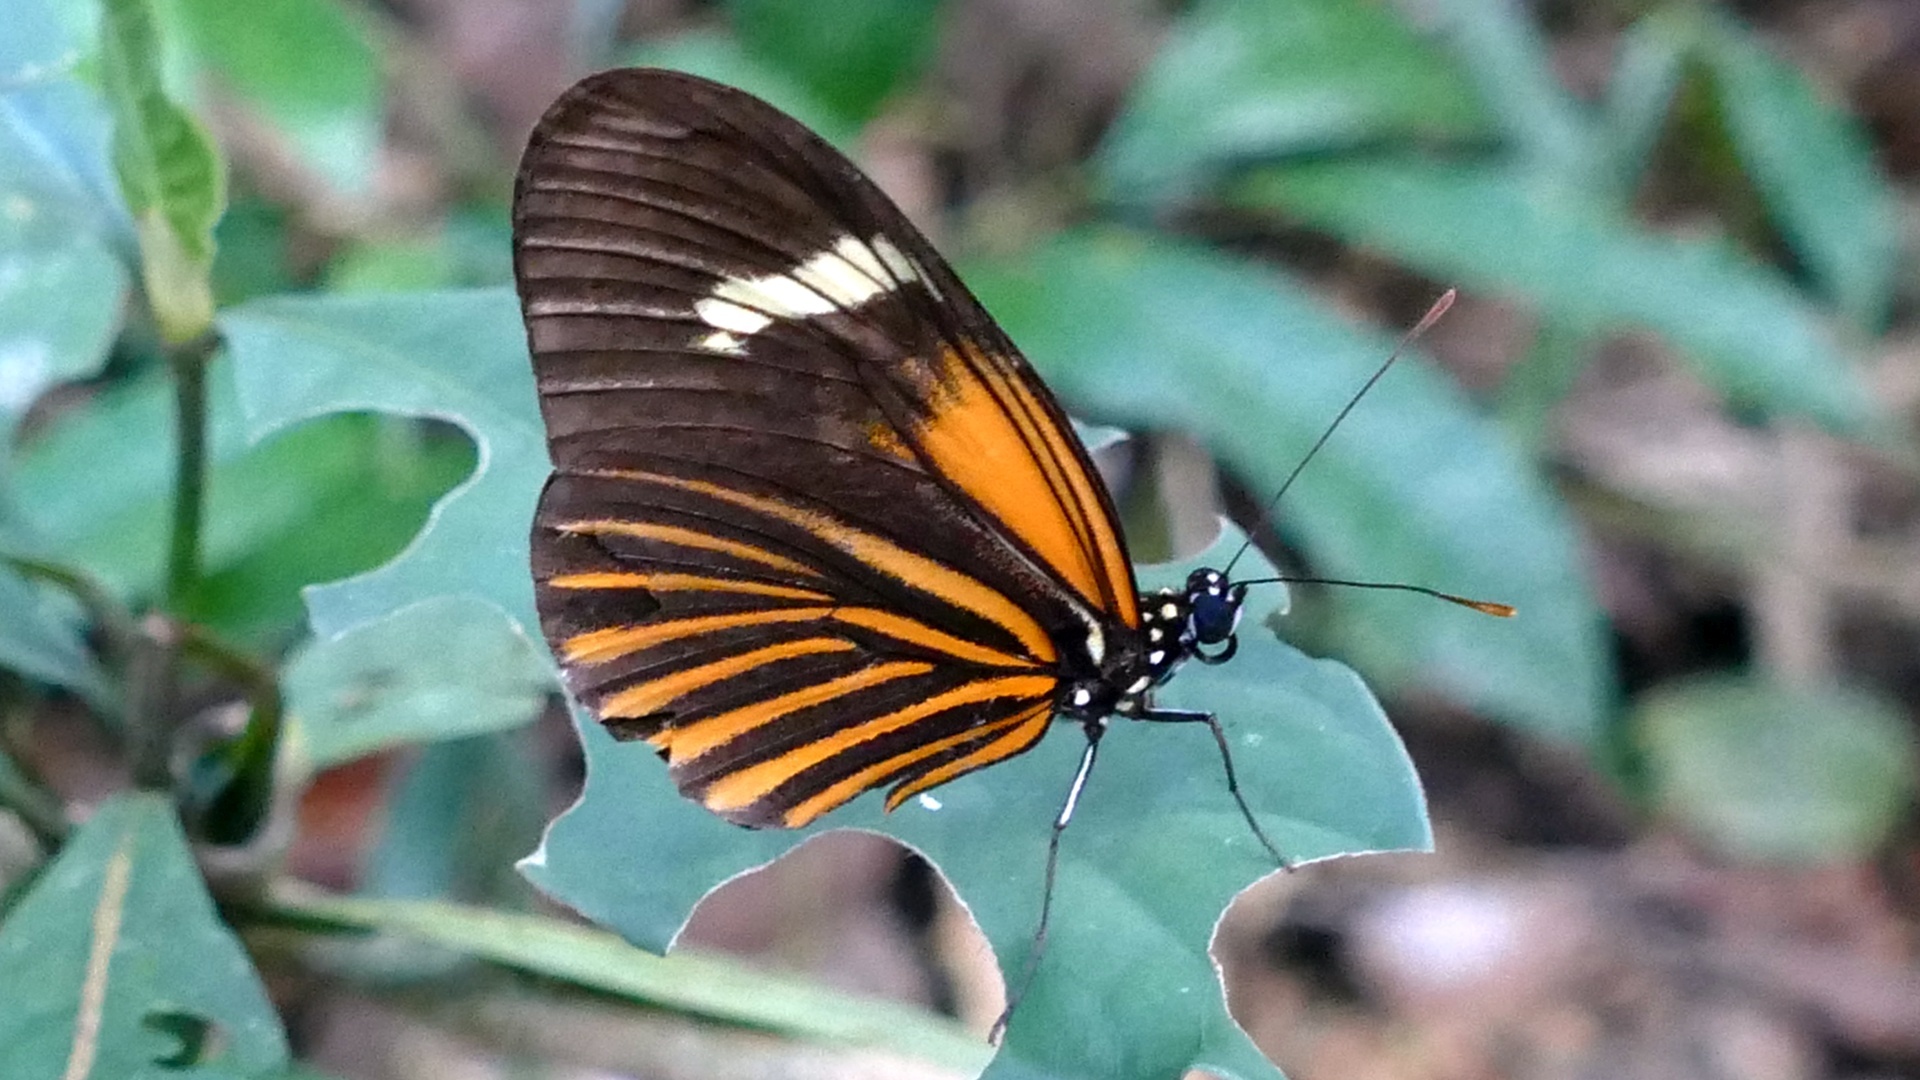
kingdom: Animalia
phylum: Arthropoda
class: Insecta
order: Lepidoptera
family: Nymphalidae
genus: Heliconius
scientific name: Heliconius aoede
